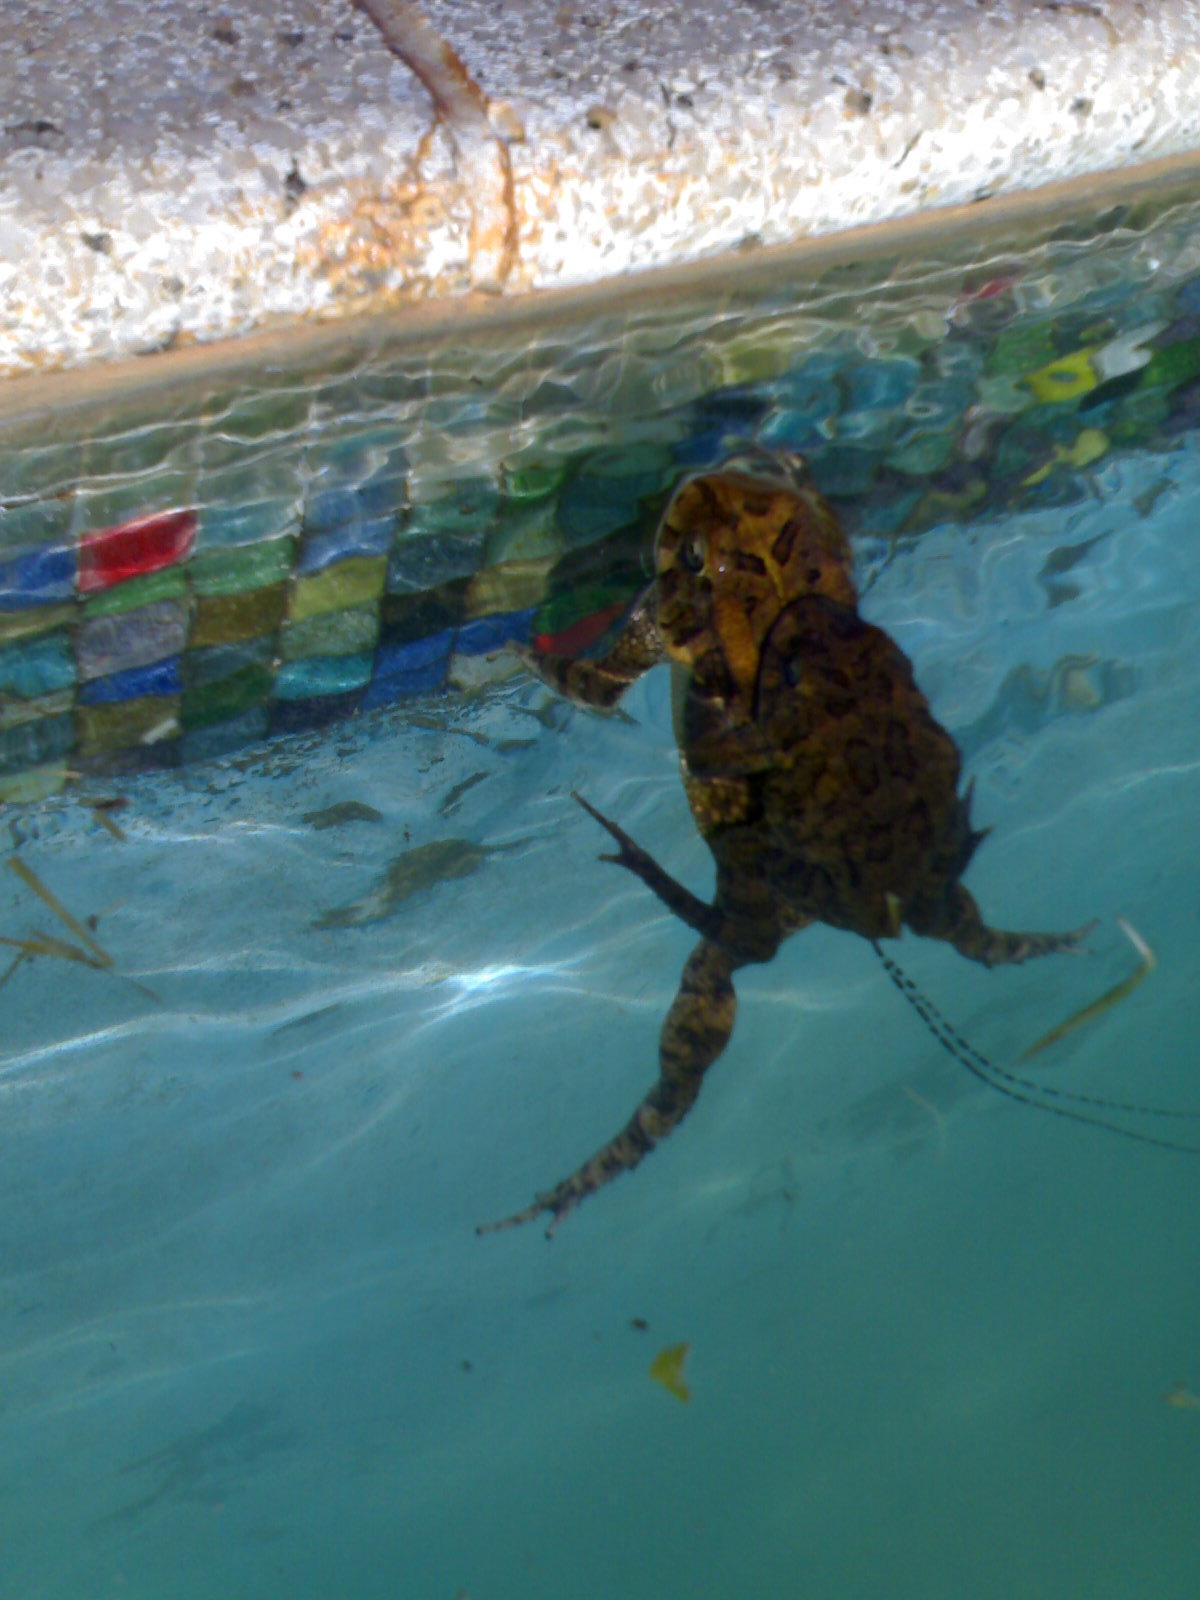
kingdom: Animalia
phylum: Chordata
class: Amphibia
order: Anura
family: Bufonidae
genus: Sclerophrys
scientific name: Sclerophrys gutturalis
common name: African common toad
